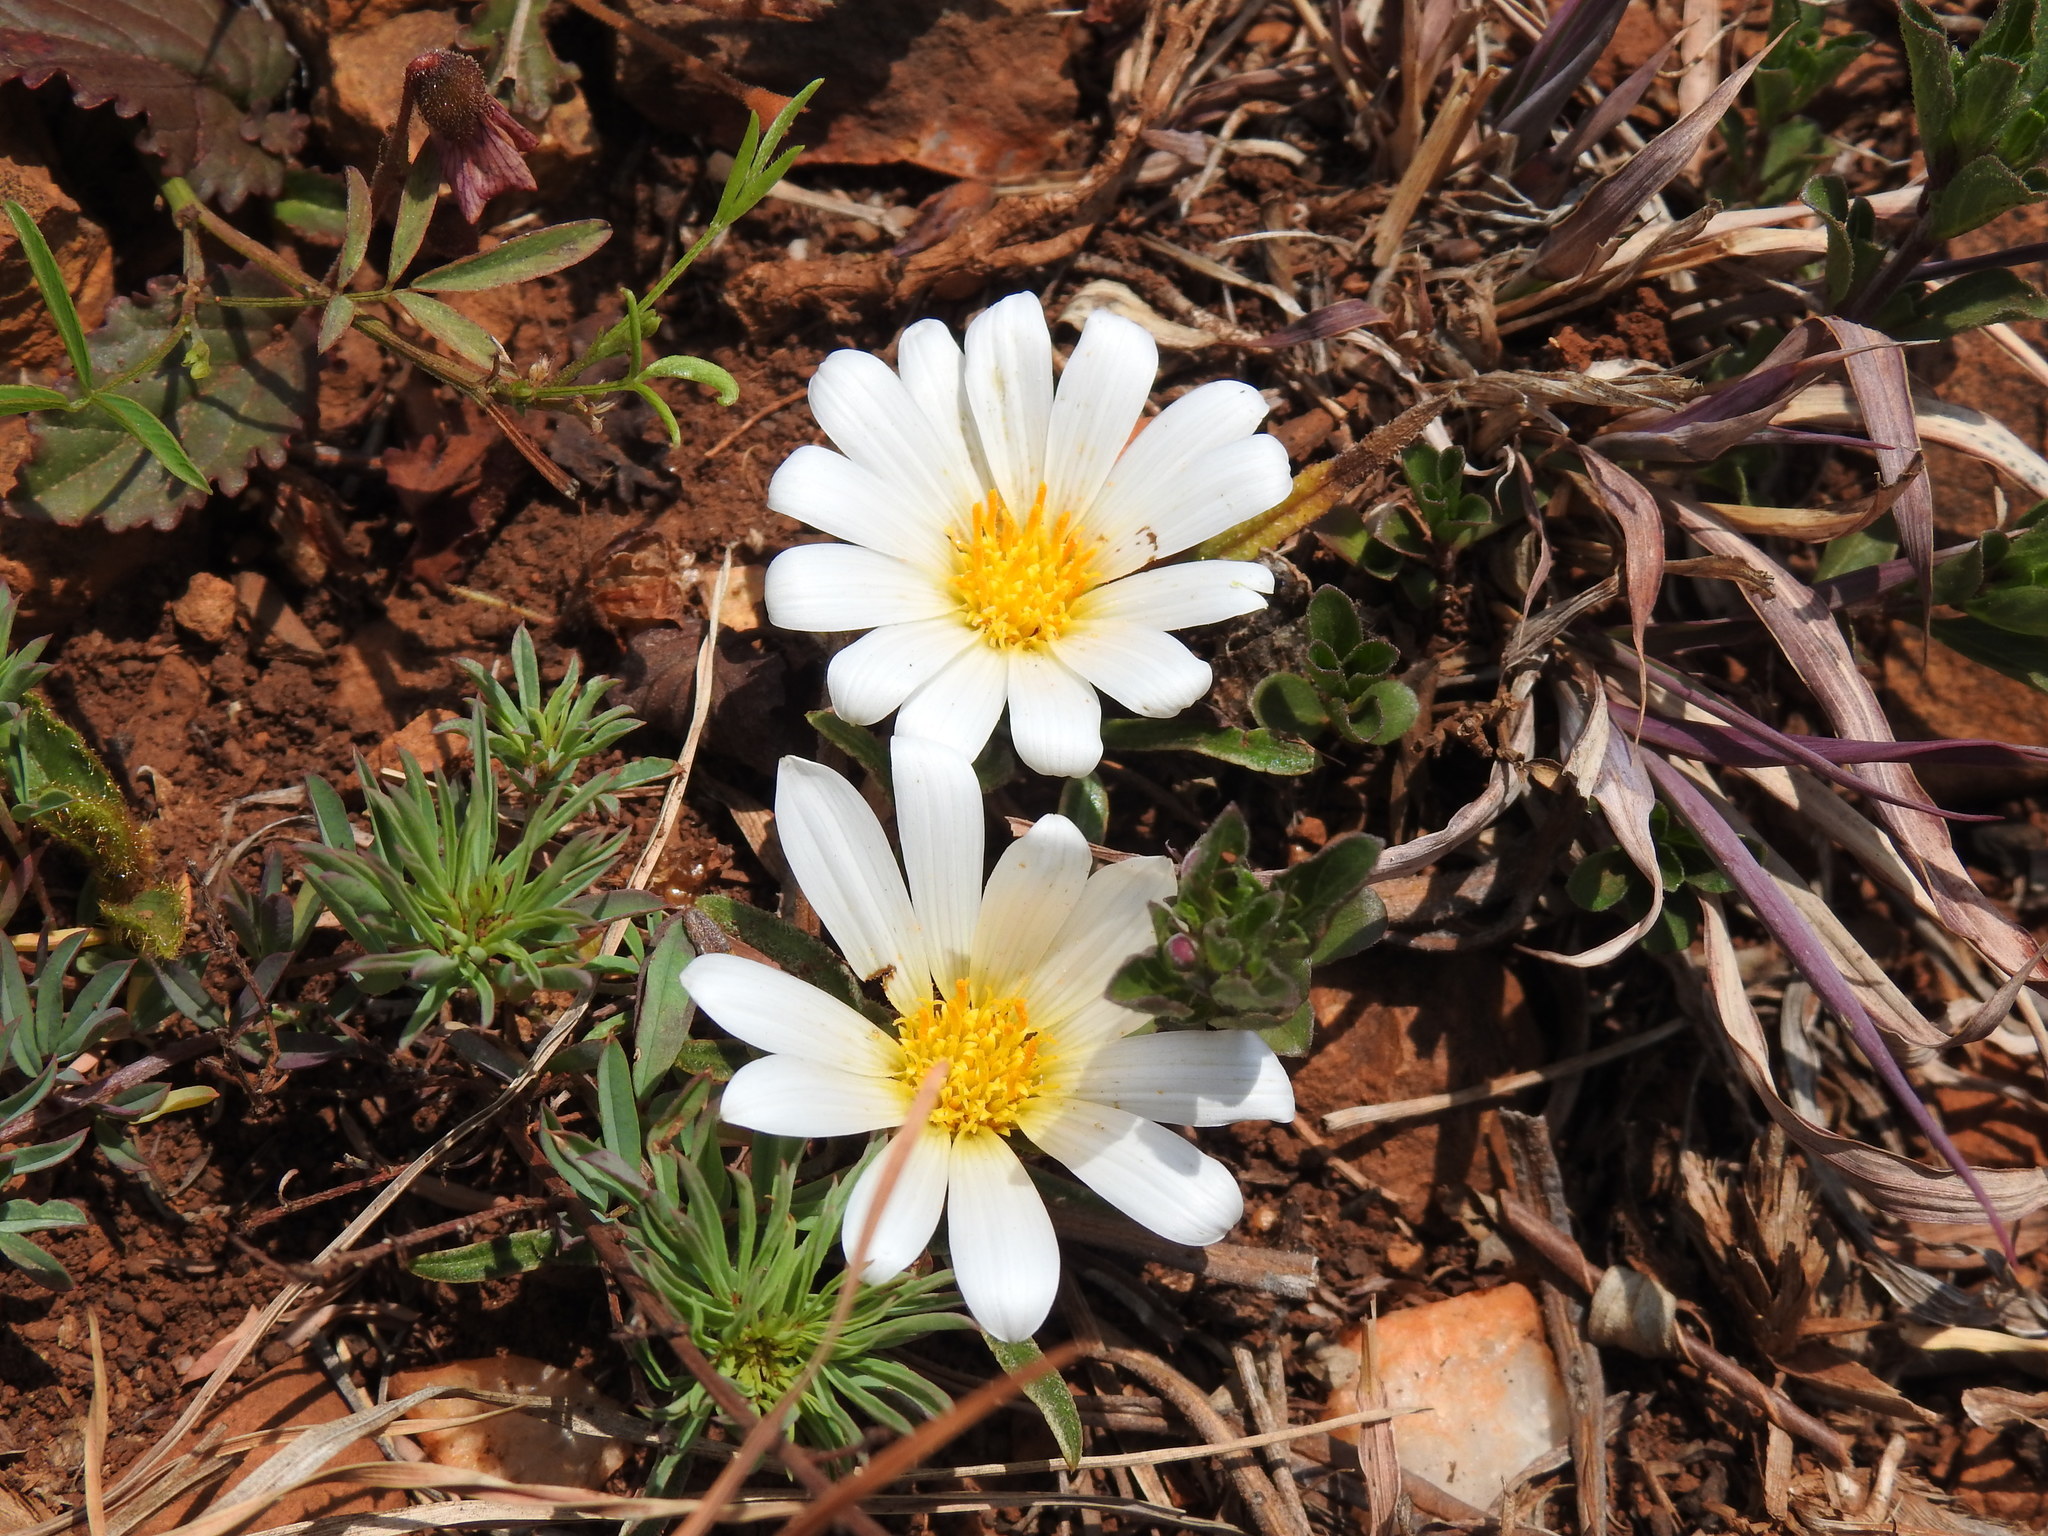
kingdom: Plantae
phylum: Tracheophyta
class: Magnoliopsida
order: Asterales
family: Asteraceae
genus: Gazania
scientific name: Gazania krebsiana
